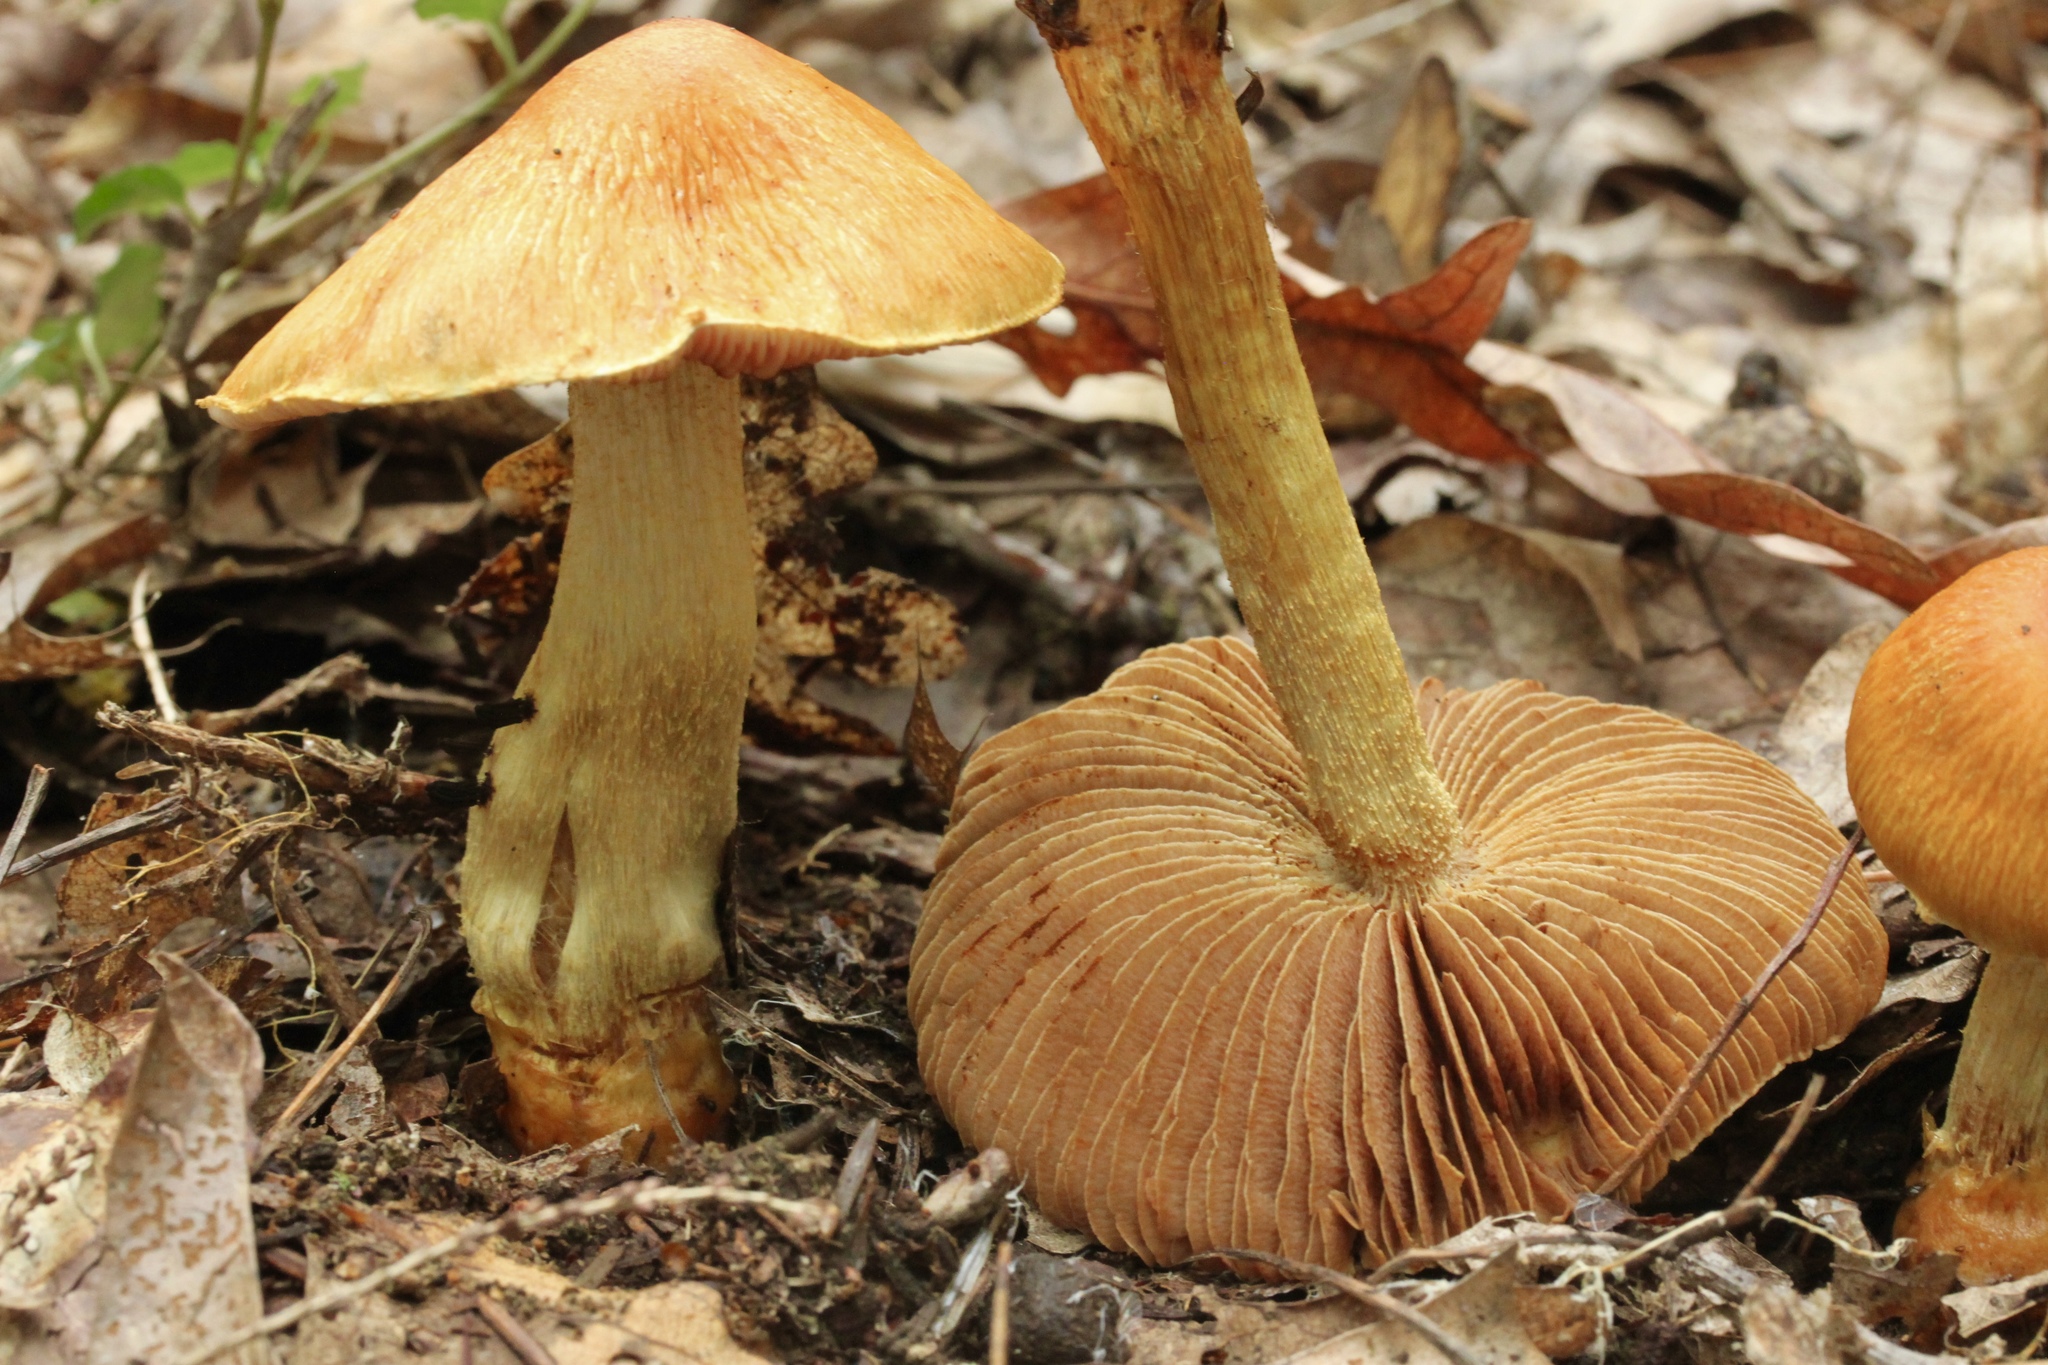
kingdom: Fungi
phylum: Basidiomycota
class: Agaricomycetes
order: Agaricales
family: Cortinariaceae
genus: Cortinarius
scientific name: Cortinarius corrugatus
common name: Wrinkled cortinarius
